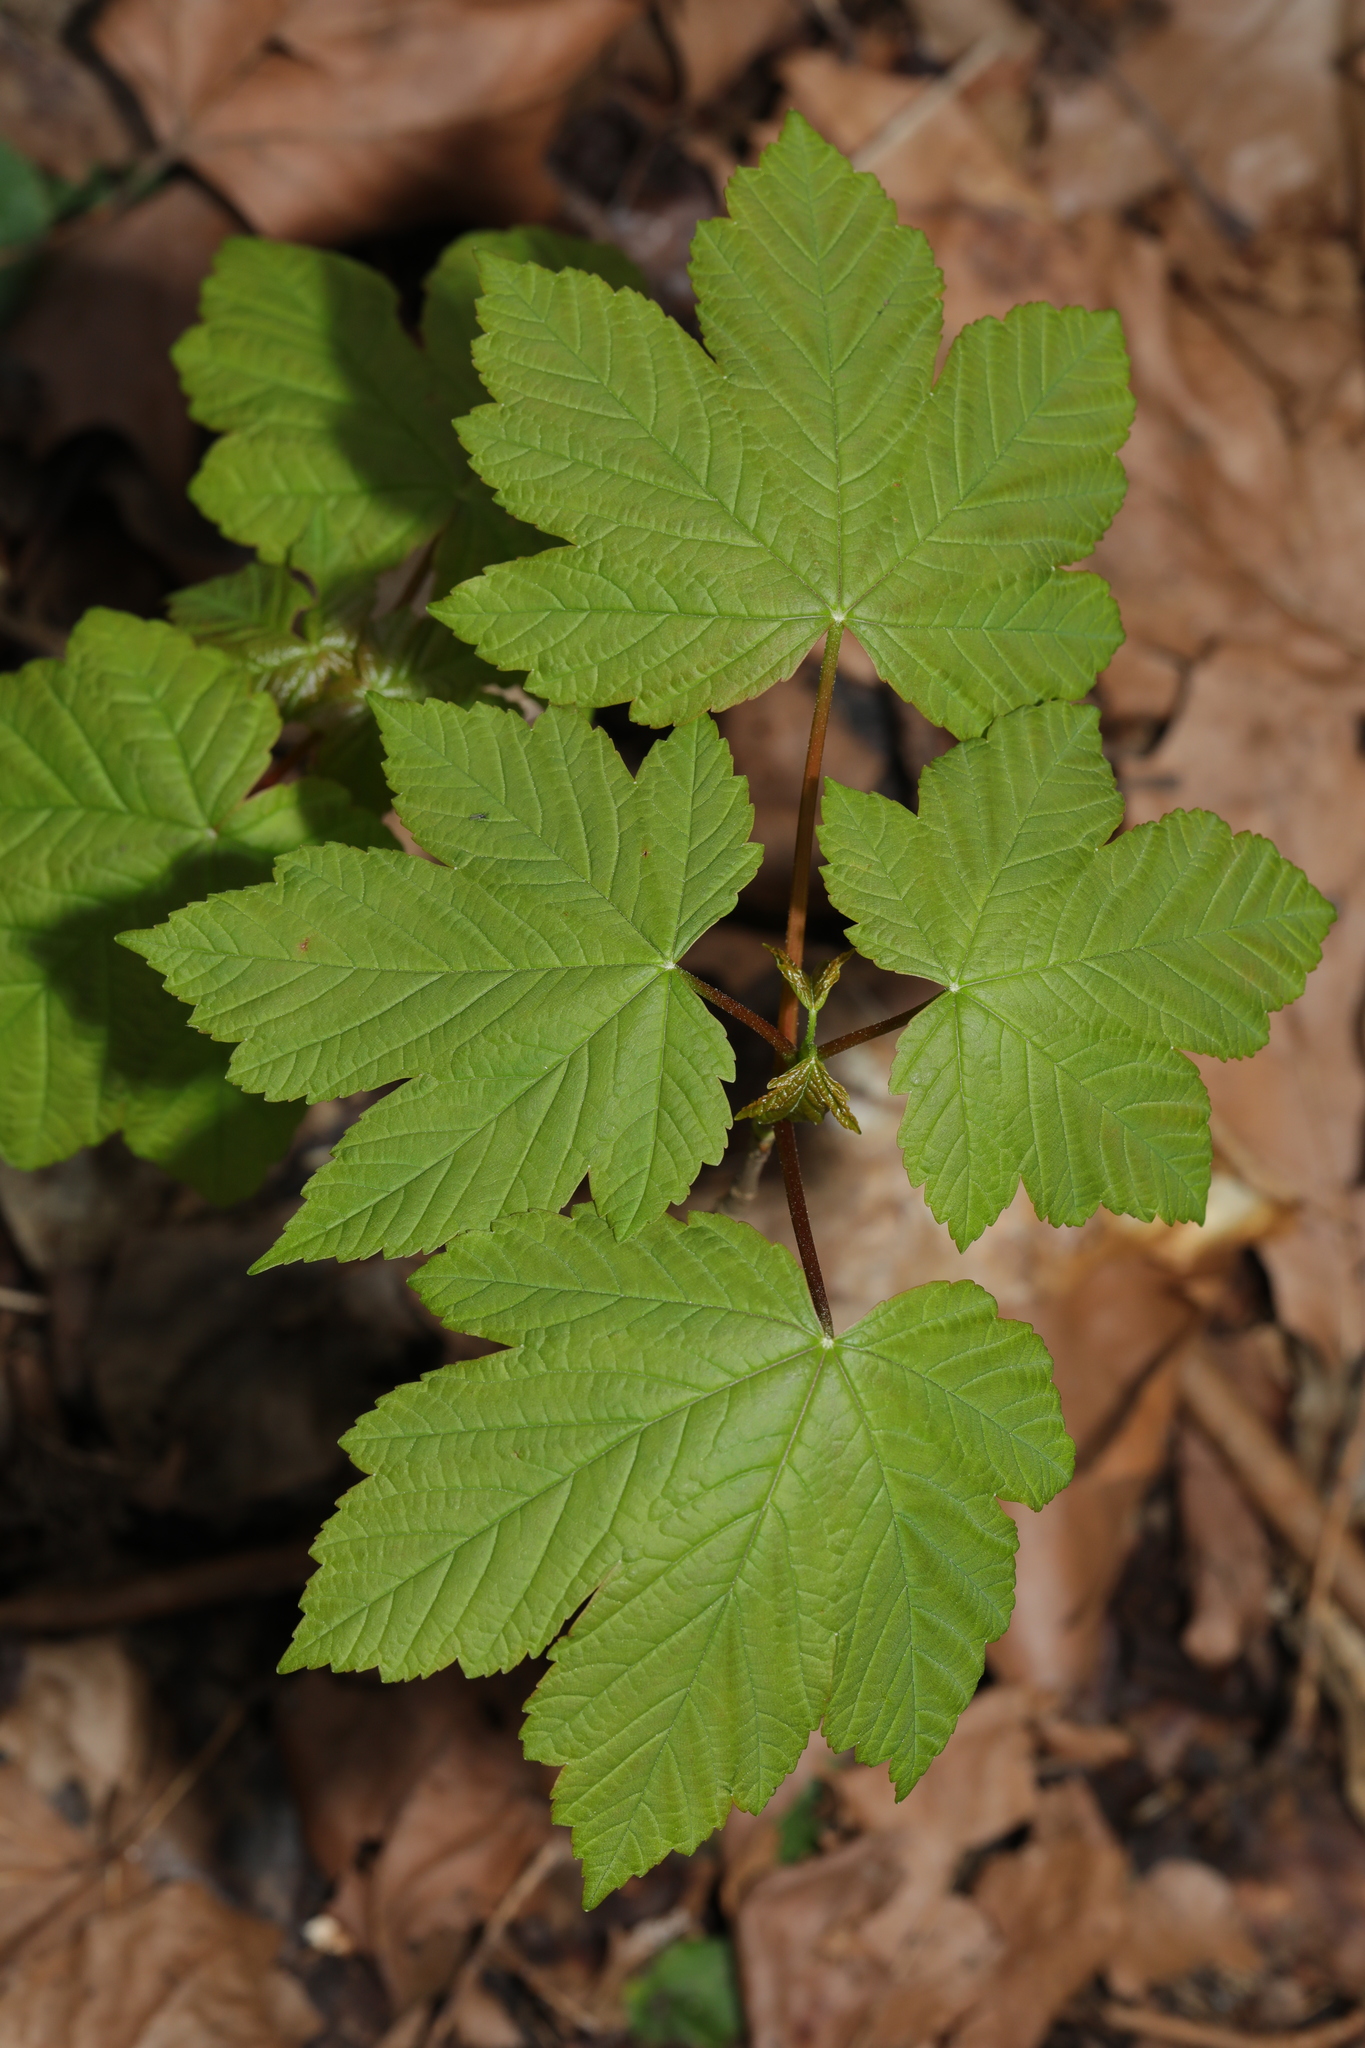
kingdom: Plantae
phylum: Tracheophyta
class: Magnoliopsida
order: Sapindales
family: Sapindaceae
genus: Acer
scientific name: Acer pseudoplatanus
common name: Sycamore
